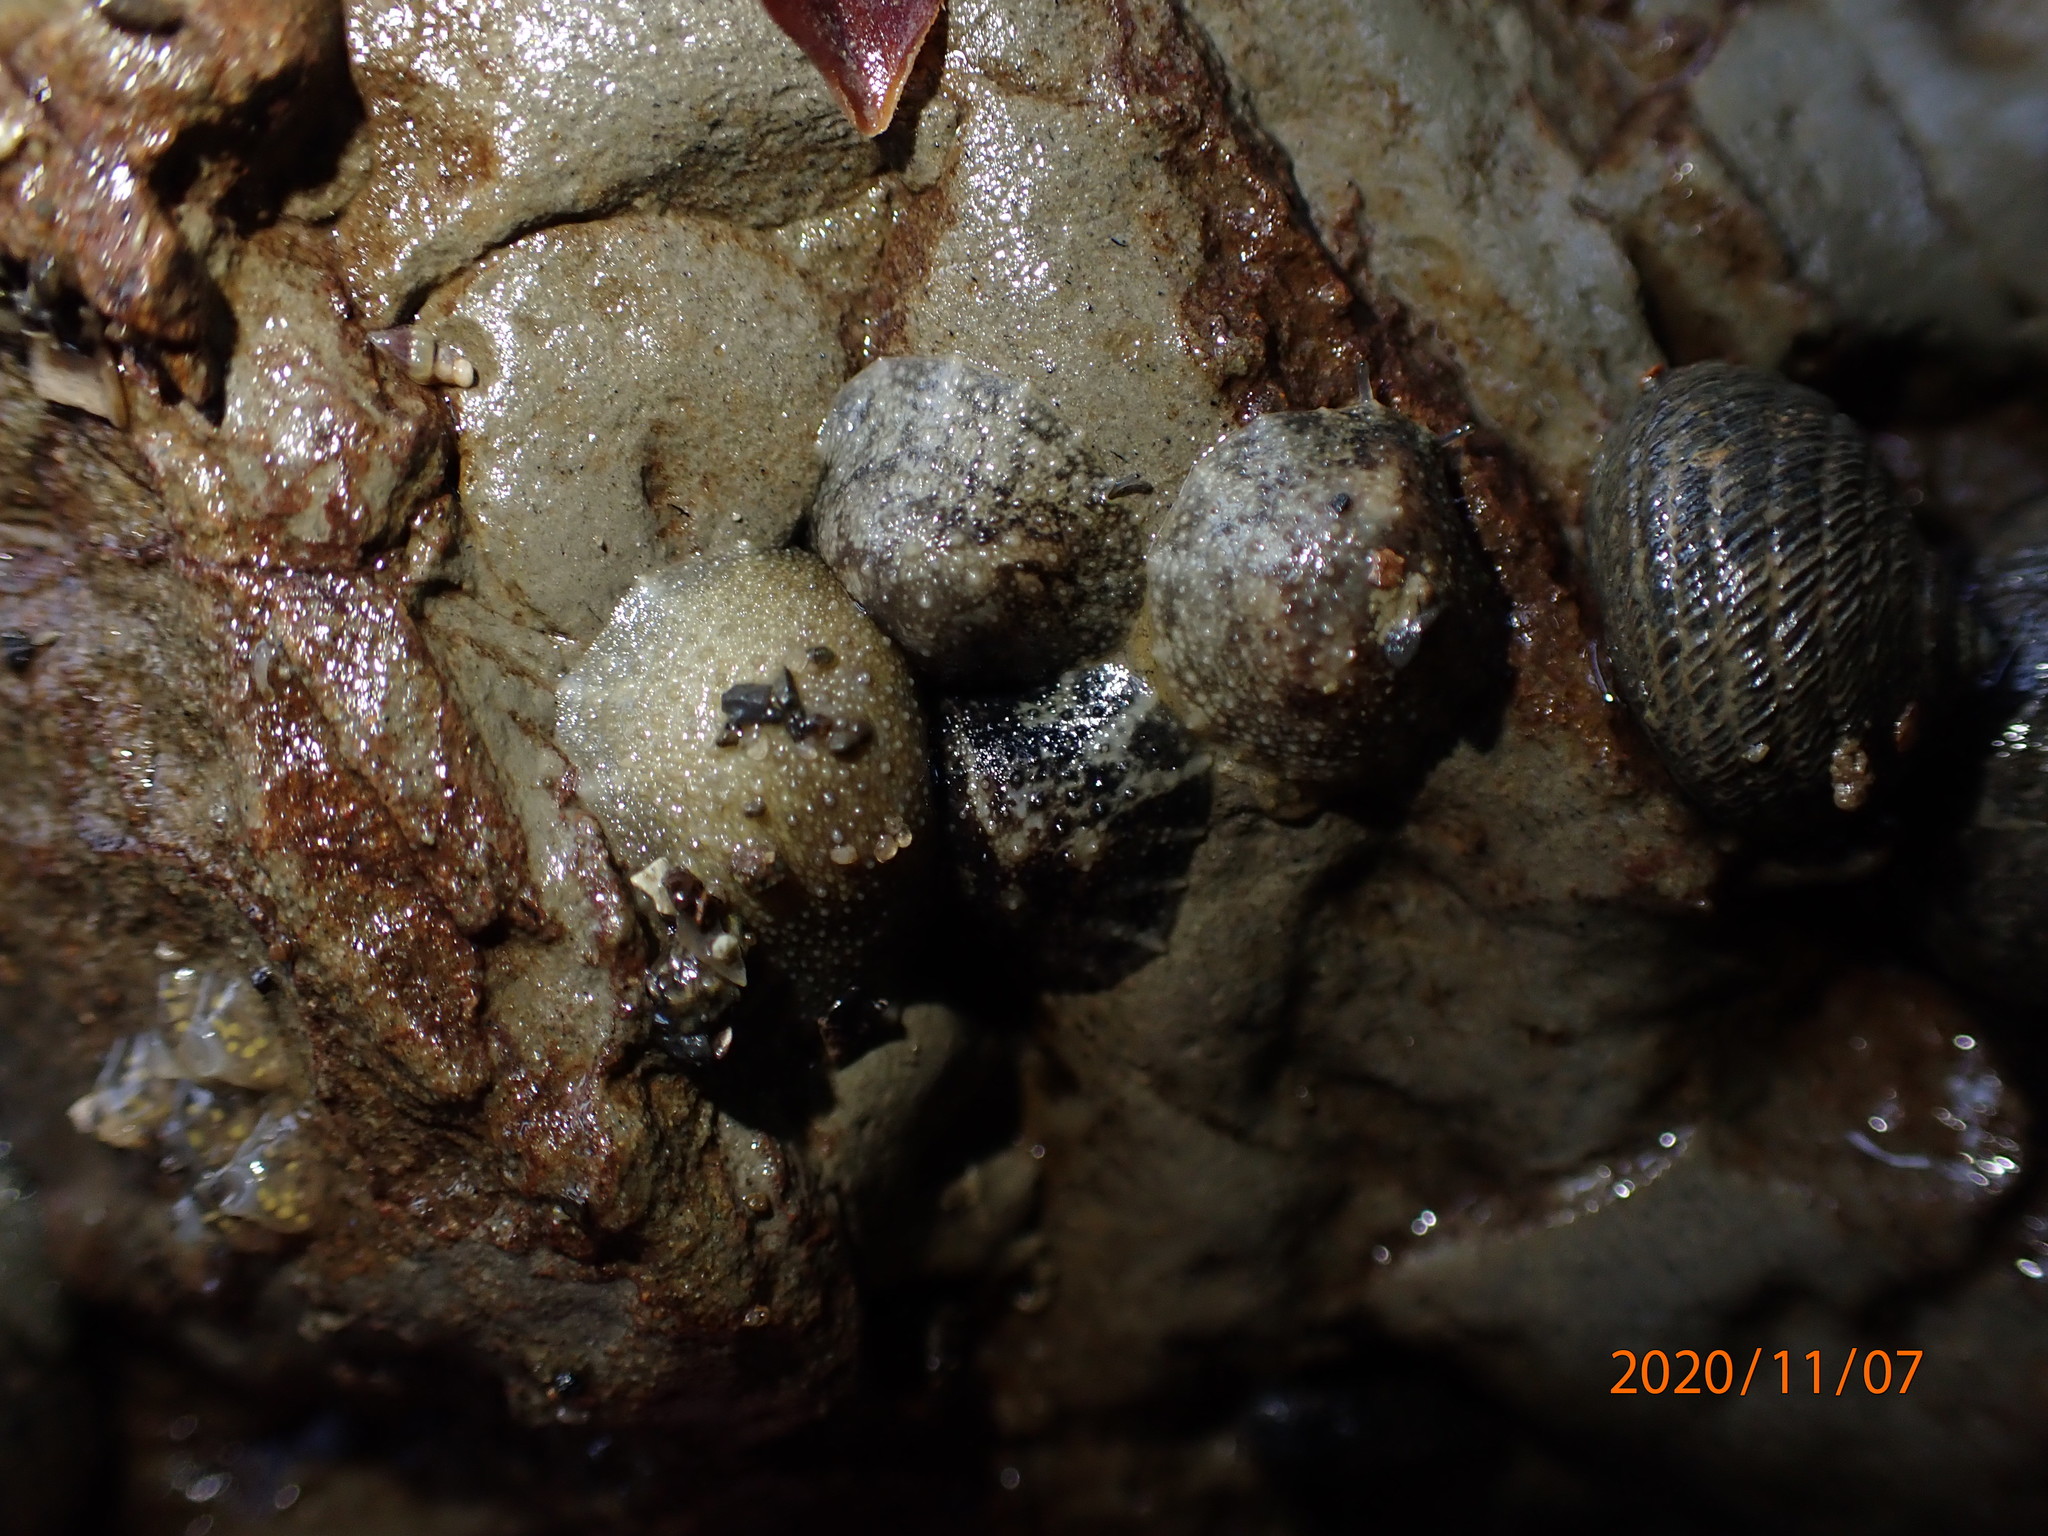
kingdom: Animalia
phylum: Mollusca
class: Gastropoda
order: Systellommatophora
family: Onchidiidae
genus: Onchidella
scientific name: Onchidella nigricans
